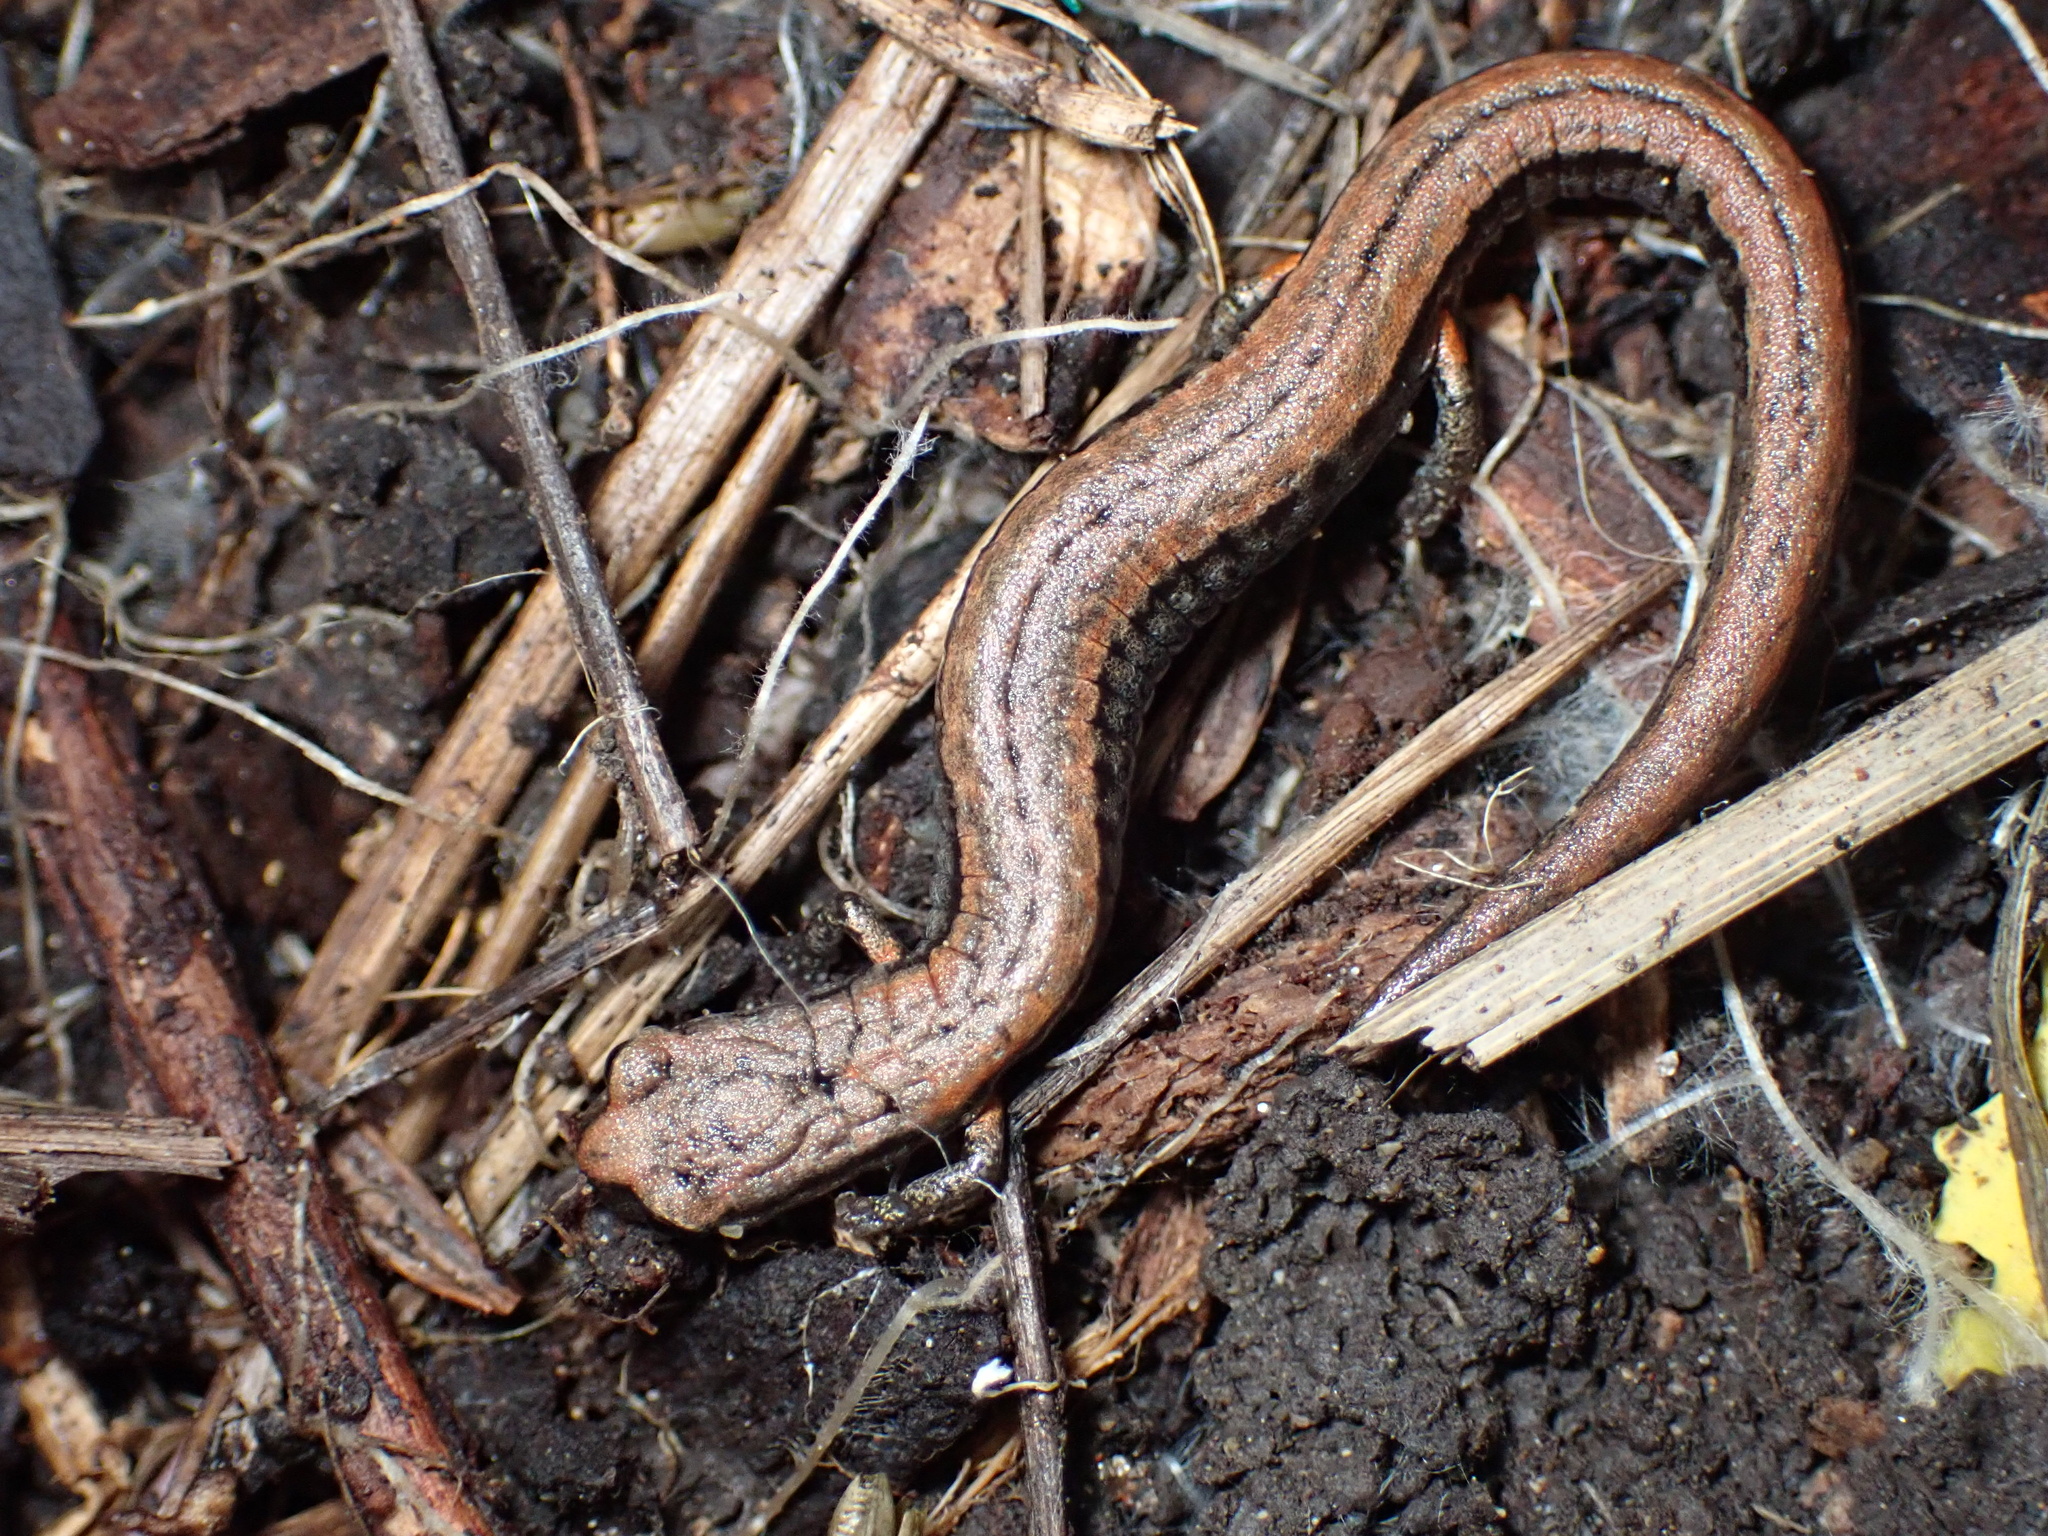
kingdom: Animalia
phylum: Chordata
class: Amphibia
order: Caudata
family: Plethodontidae
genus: Batrachoseps
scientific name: Batrachoseps attenuatus
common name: California slender salamander
